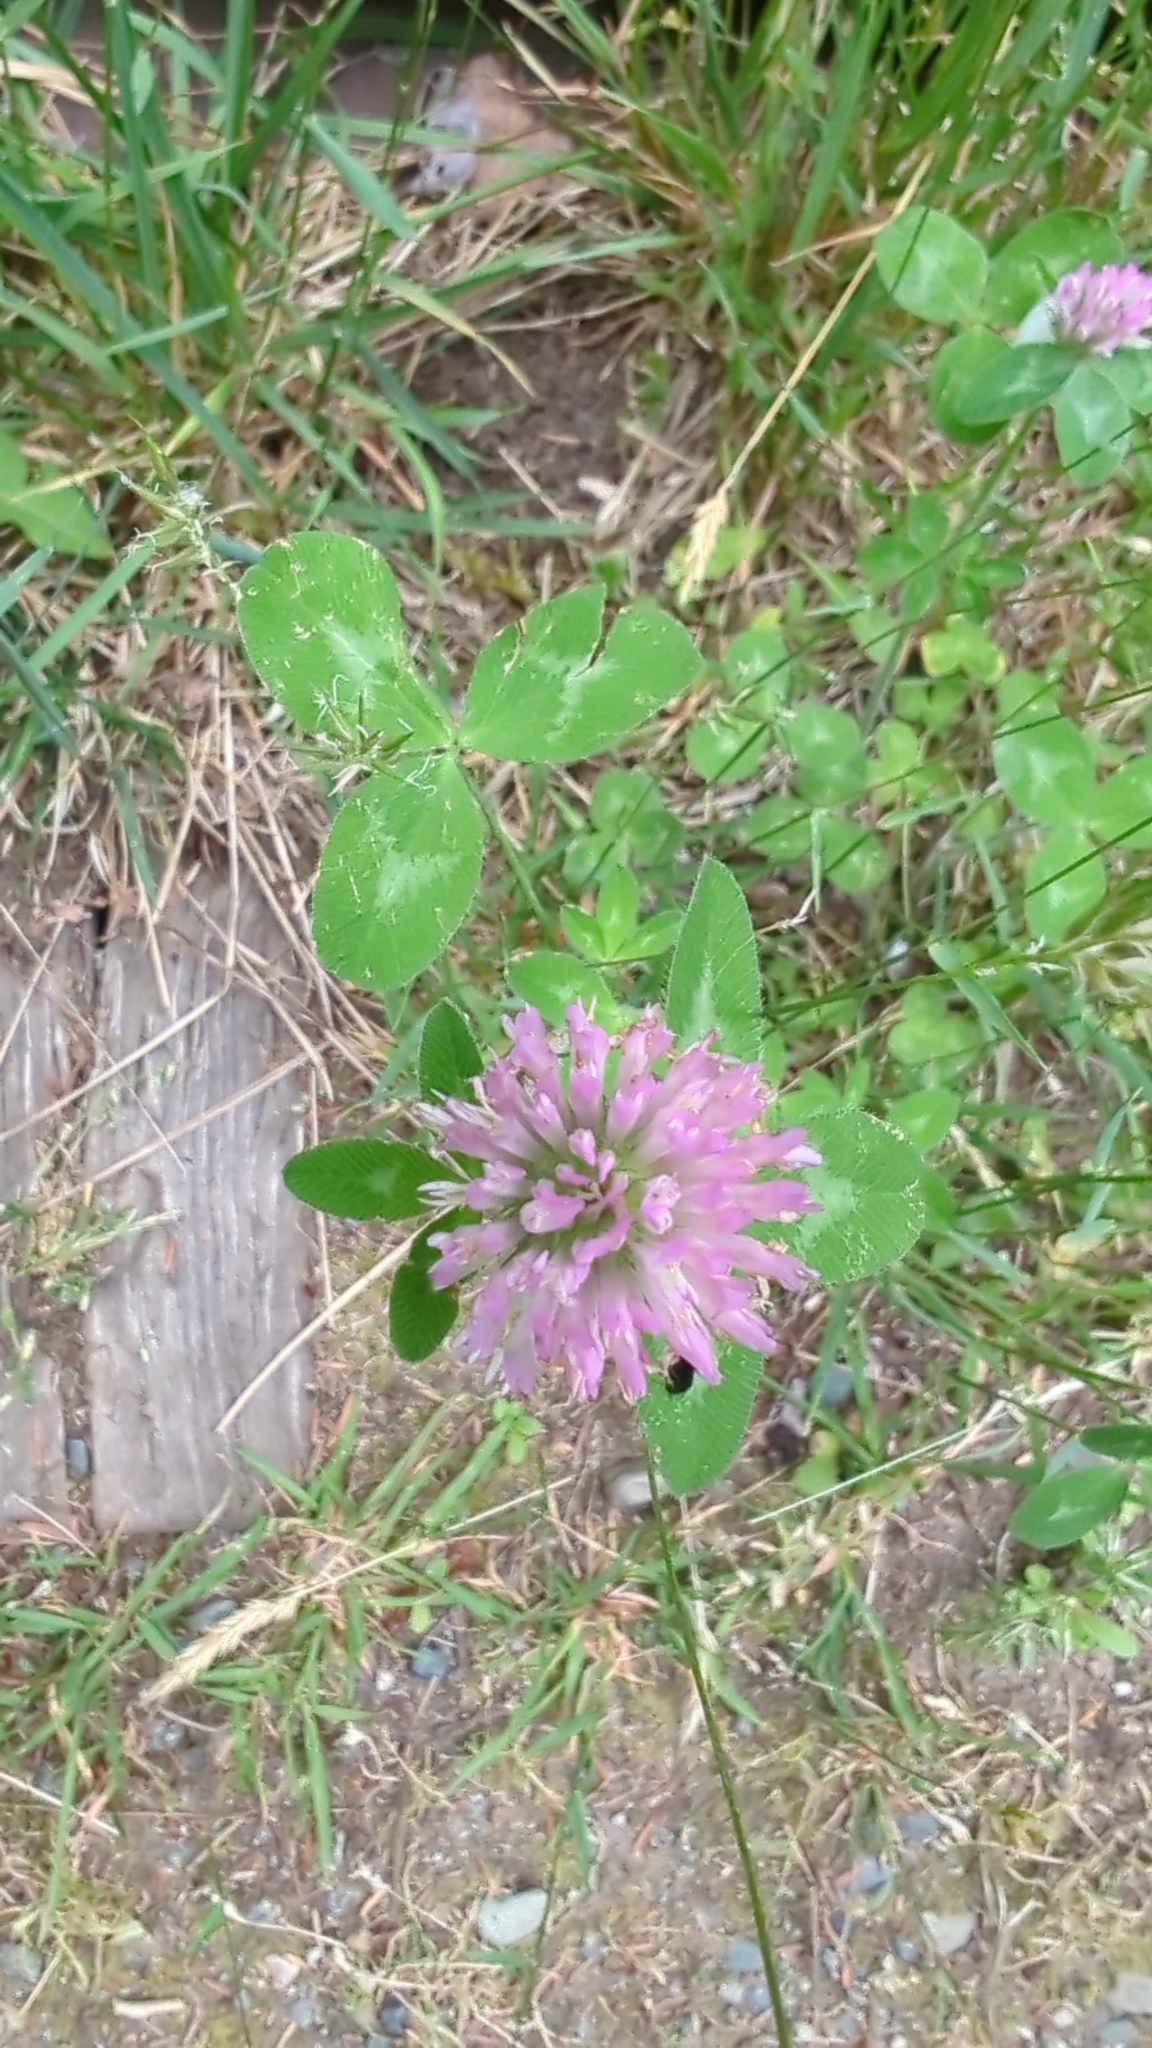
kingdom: Plantae
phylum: Tracheophyta
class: Magnoliopsida
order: Fabales
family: Fabaceae
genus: Trifolium
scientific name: Trifolium pratense
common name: Red clover
